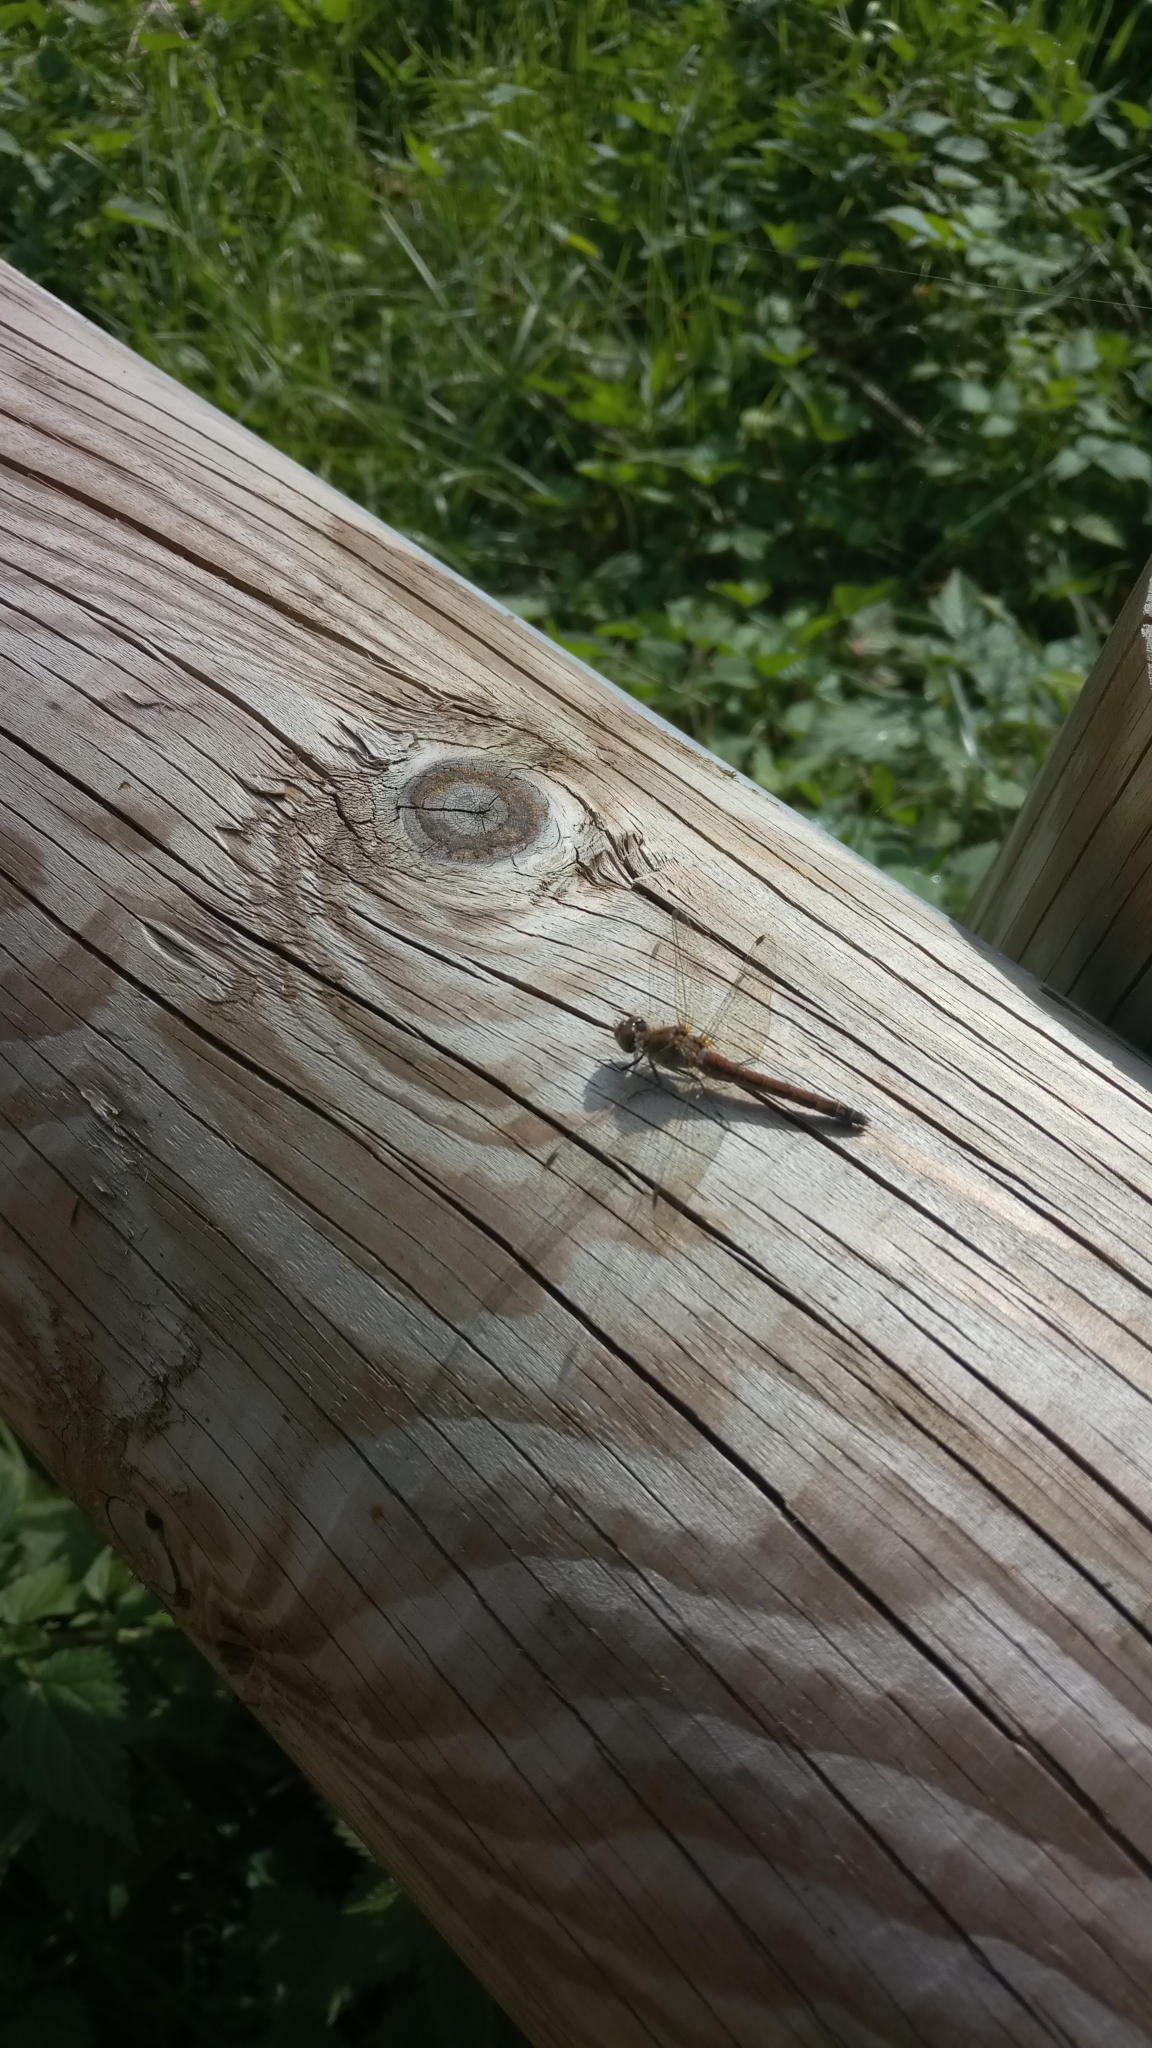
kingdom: Animalia
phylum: Arthropoda
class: Insecta
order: Odonata
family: Libellulidae
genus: Sympetrum
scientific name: Sympetrum striolatum
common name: Common darter
